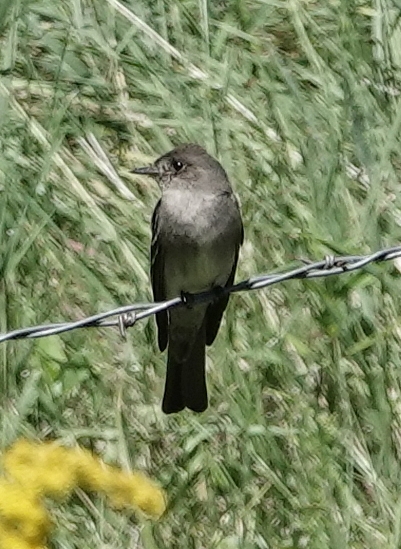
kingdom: Animalia
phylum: Chordata
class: Aves
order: Passeriformes
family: Tyrannidae
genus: Contopus
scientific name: Contopus sordidulus
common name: Western wood-pewee
